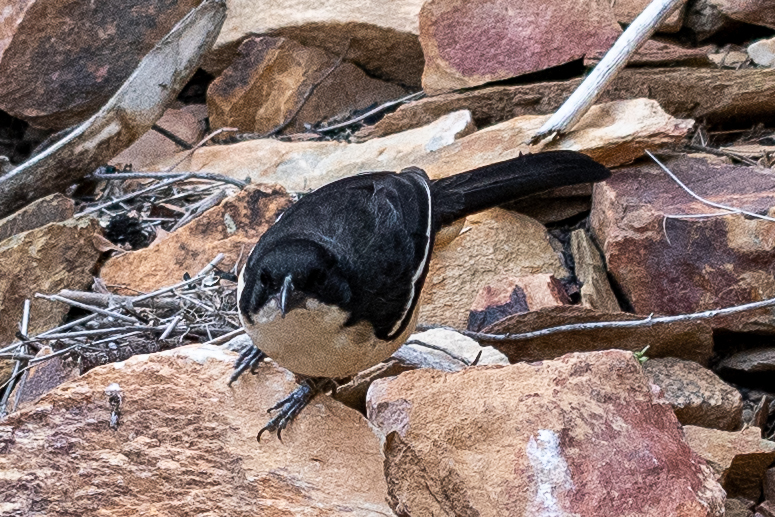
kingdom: Animalia
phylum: Chordata
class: Aves
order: Passeriformes
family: Malaconotidae
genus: Laniarius
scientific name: Laniarius ferrugineus
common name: Southern boubou
